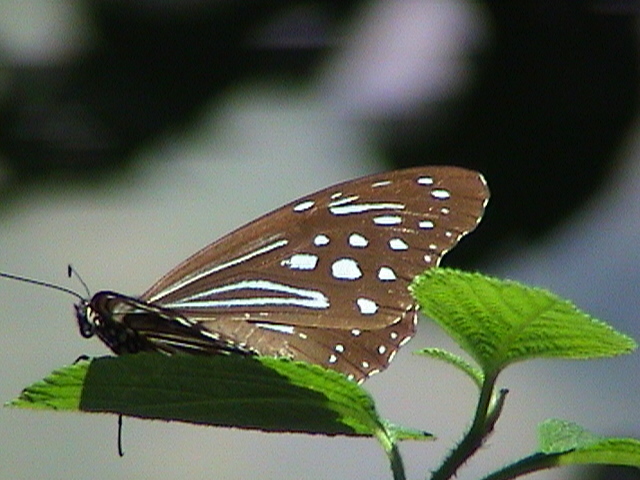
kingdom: Animalia
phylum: Arthropoda
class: Insecta
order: Lepidoptera
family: Nymphalidae
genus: Parantica
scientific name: Parantica nilgiriensis
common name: Nilgiri tiger
